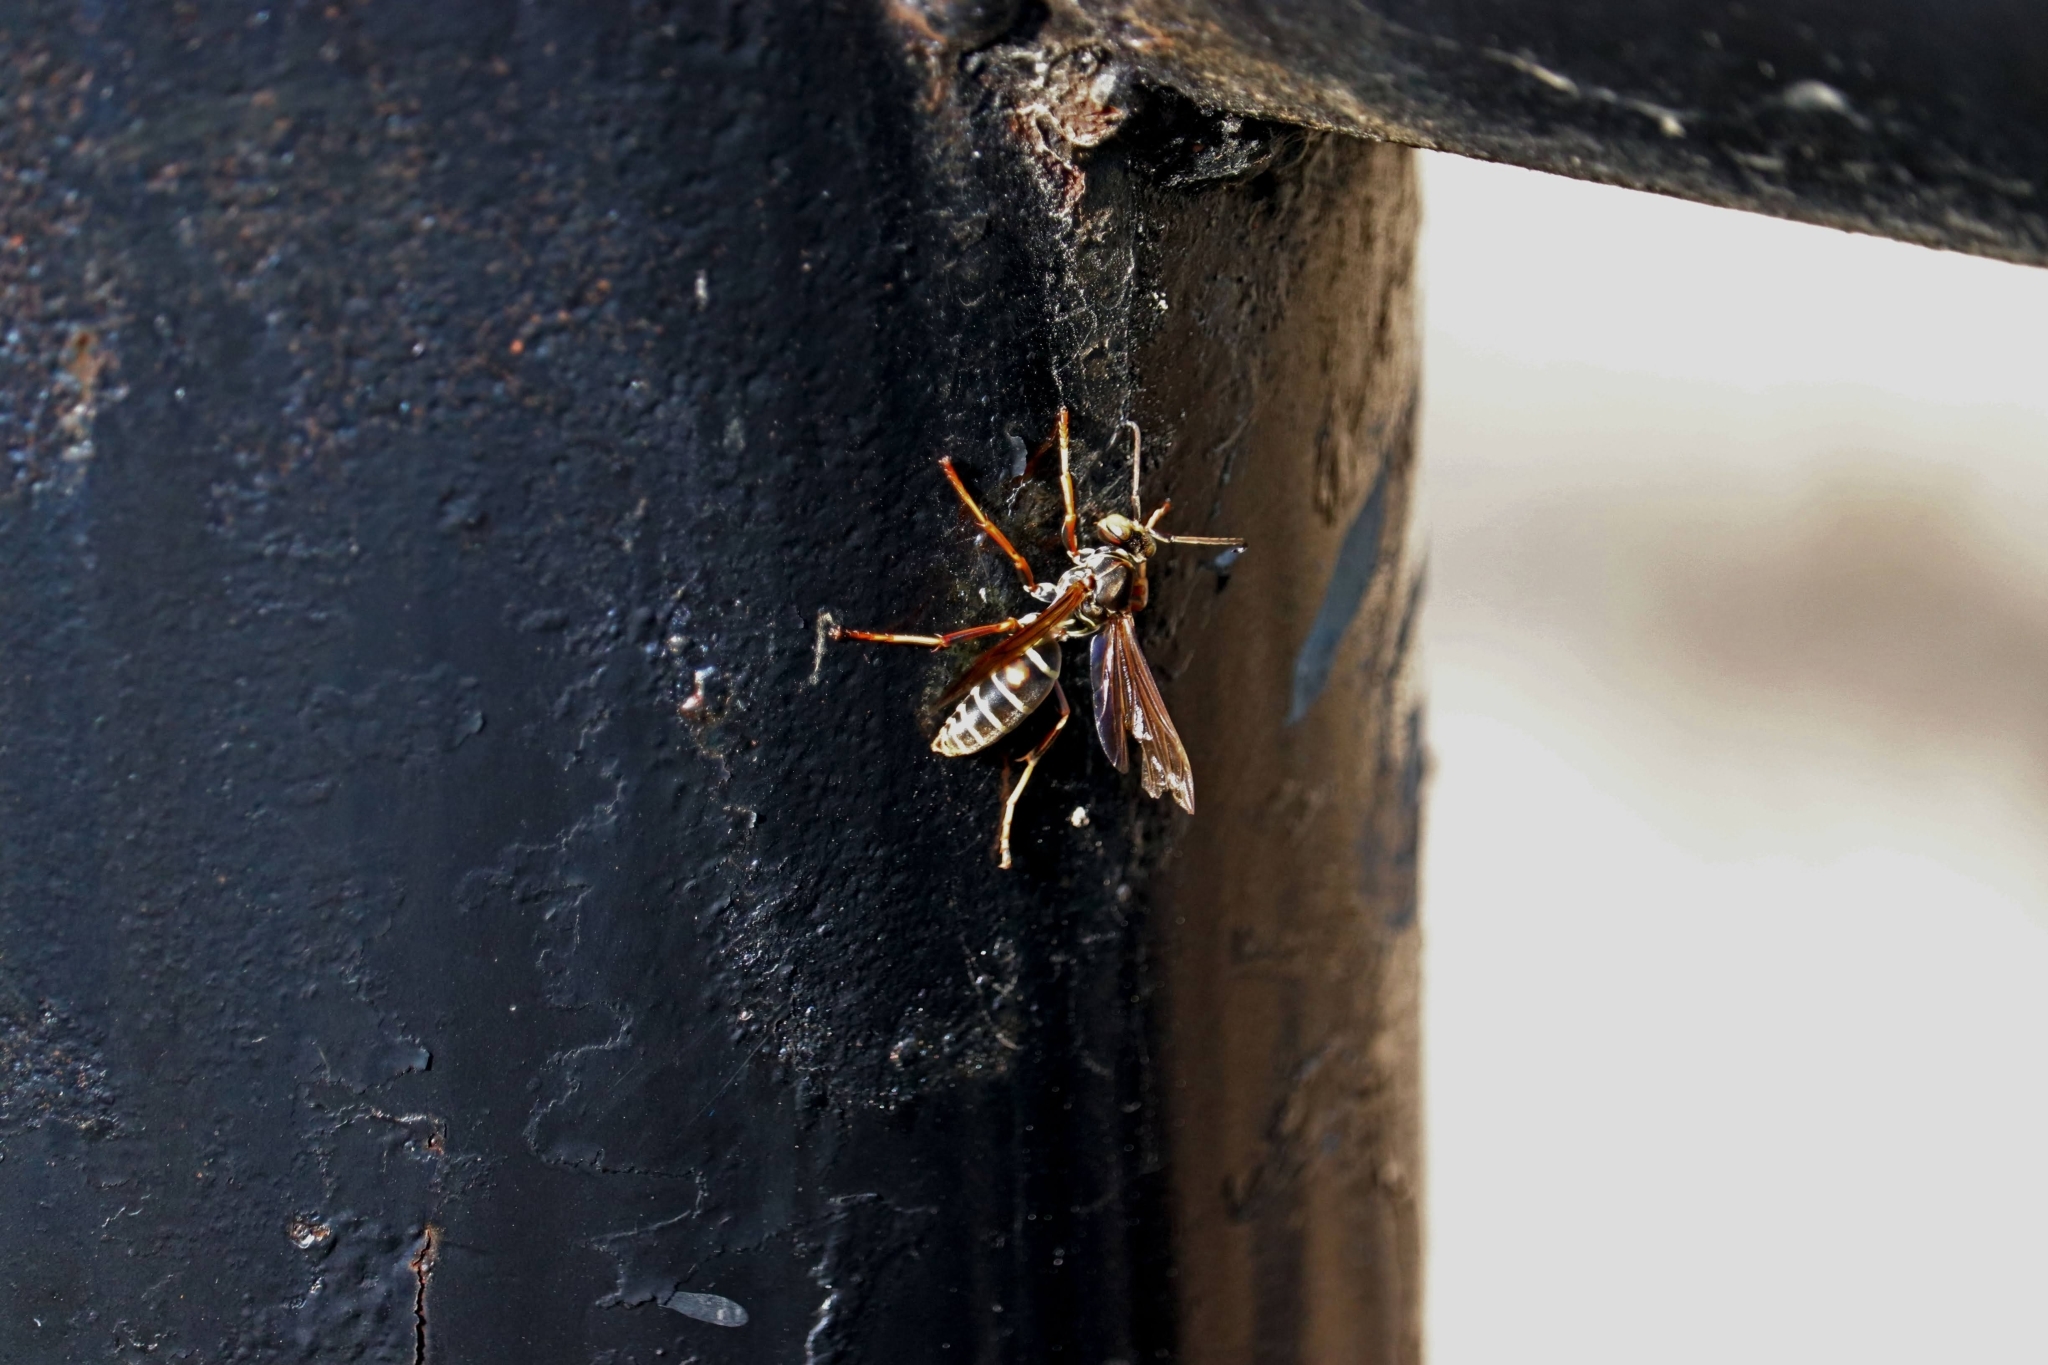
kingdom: Animalia
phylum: Arthropoda
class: Insecta
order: Hymenoptera
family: Eumenidae
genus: Polistes
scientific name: Polistes fuscatus
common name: Dark paper wasp
